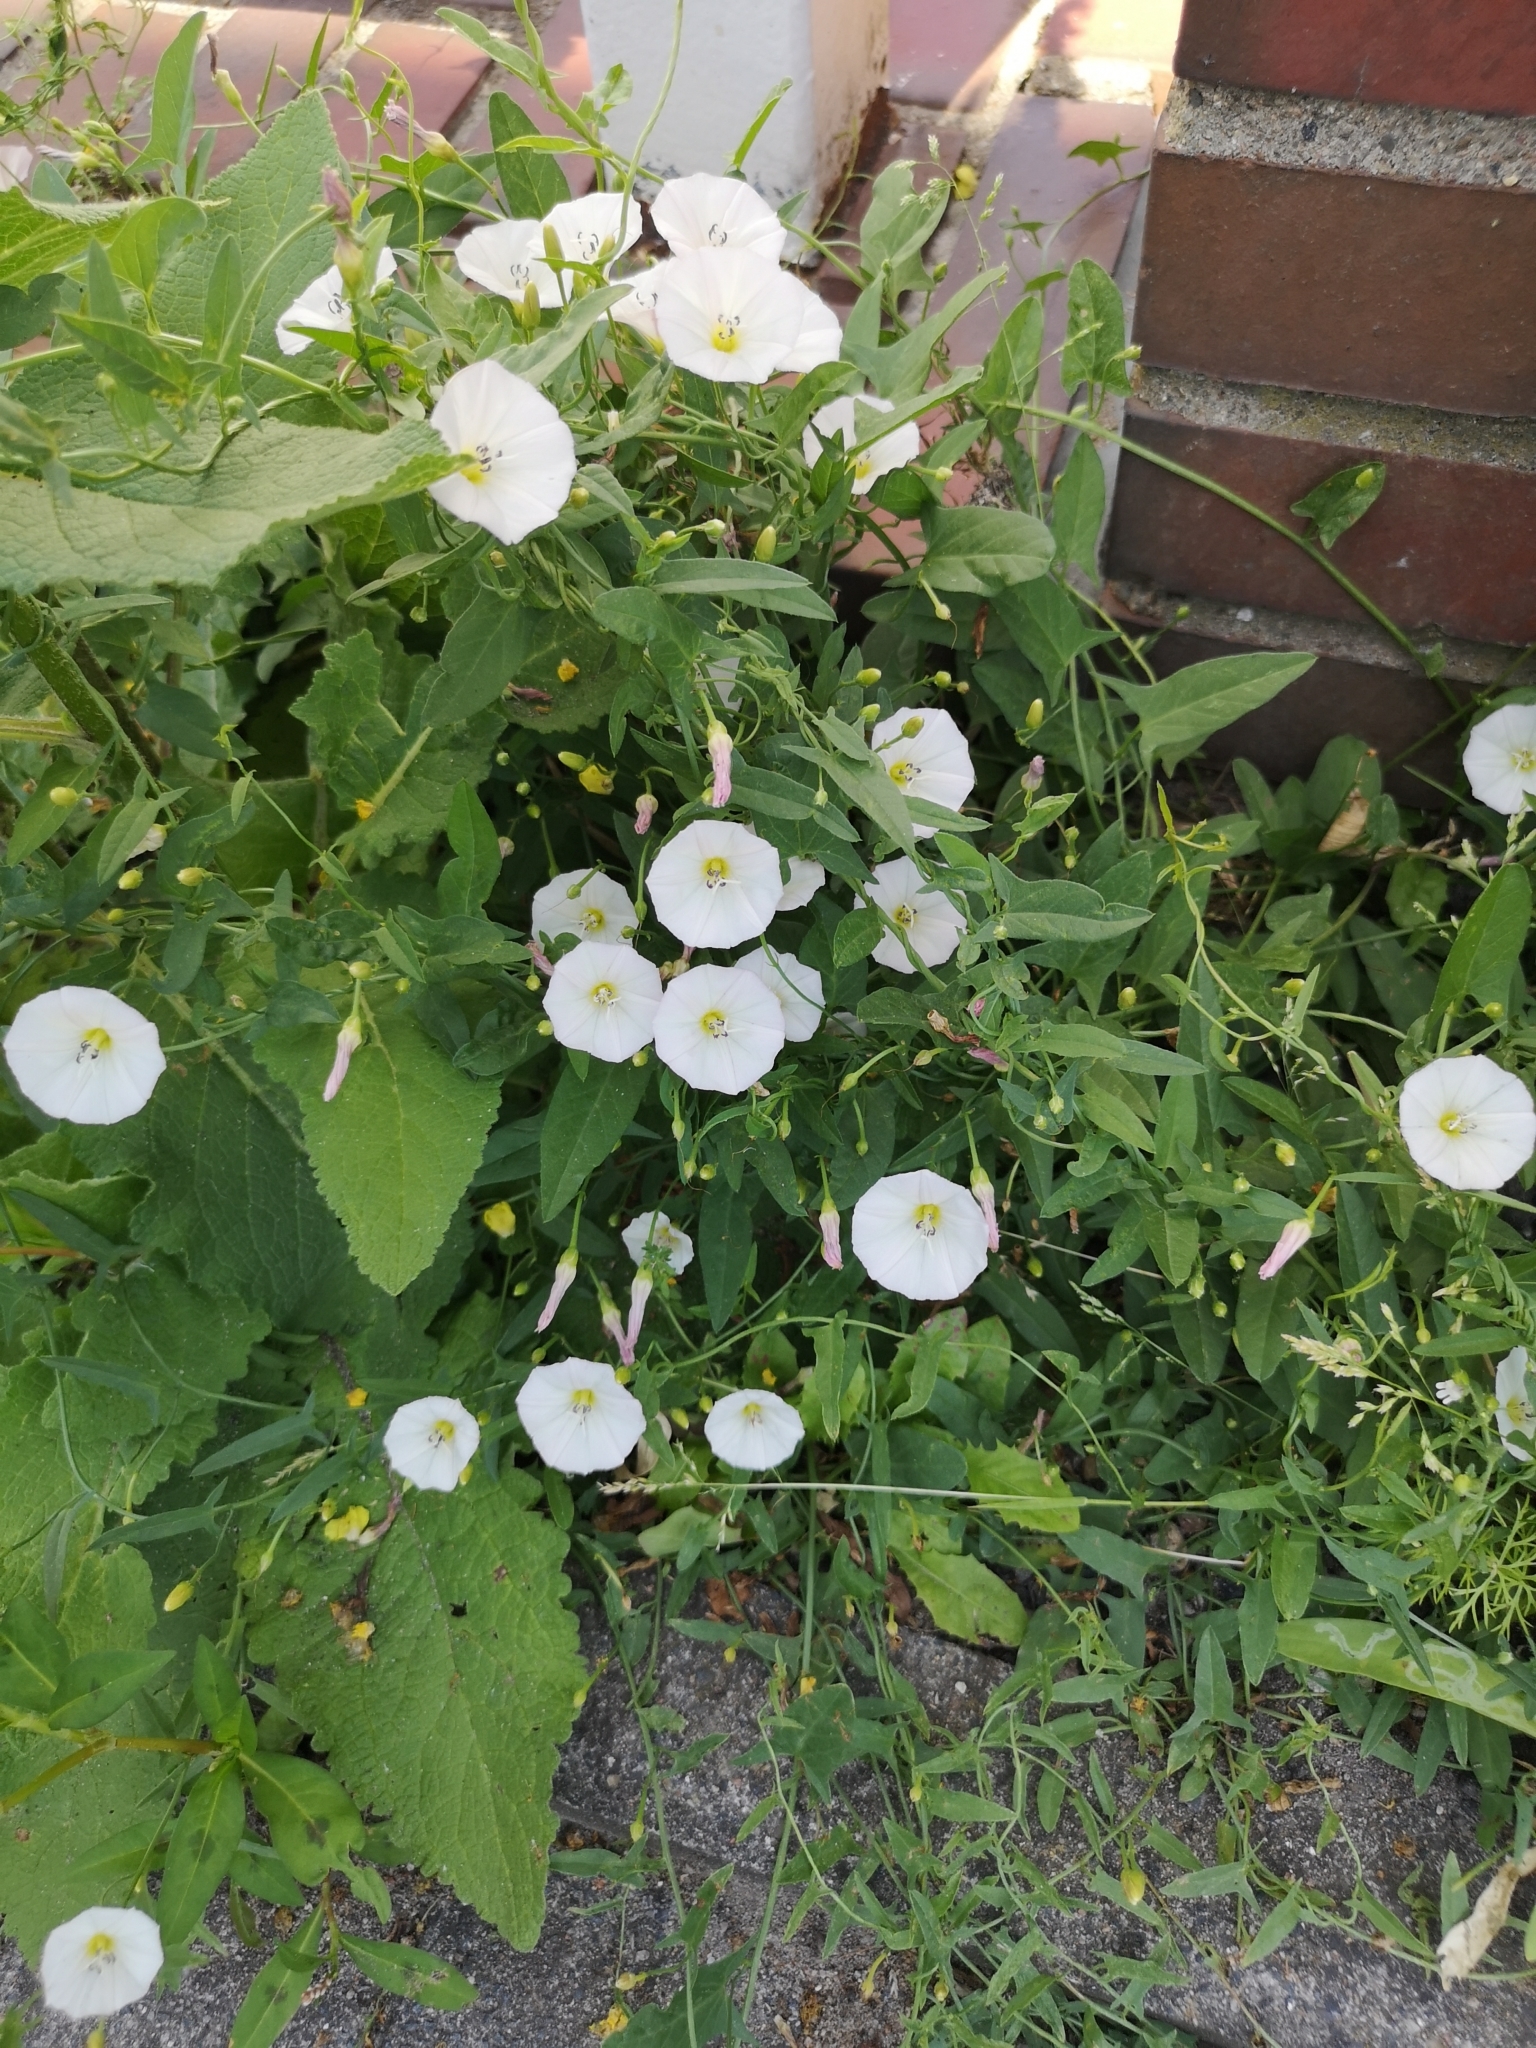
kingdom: Plantae
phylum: Tracheophyta
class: Magnoliopsida
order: Solanales
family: Convolvulaceae
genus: Convolvulus
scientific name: Convolvulus arvensis
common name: Field bindweed
